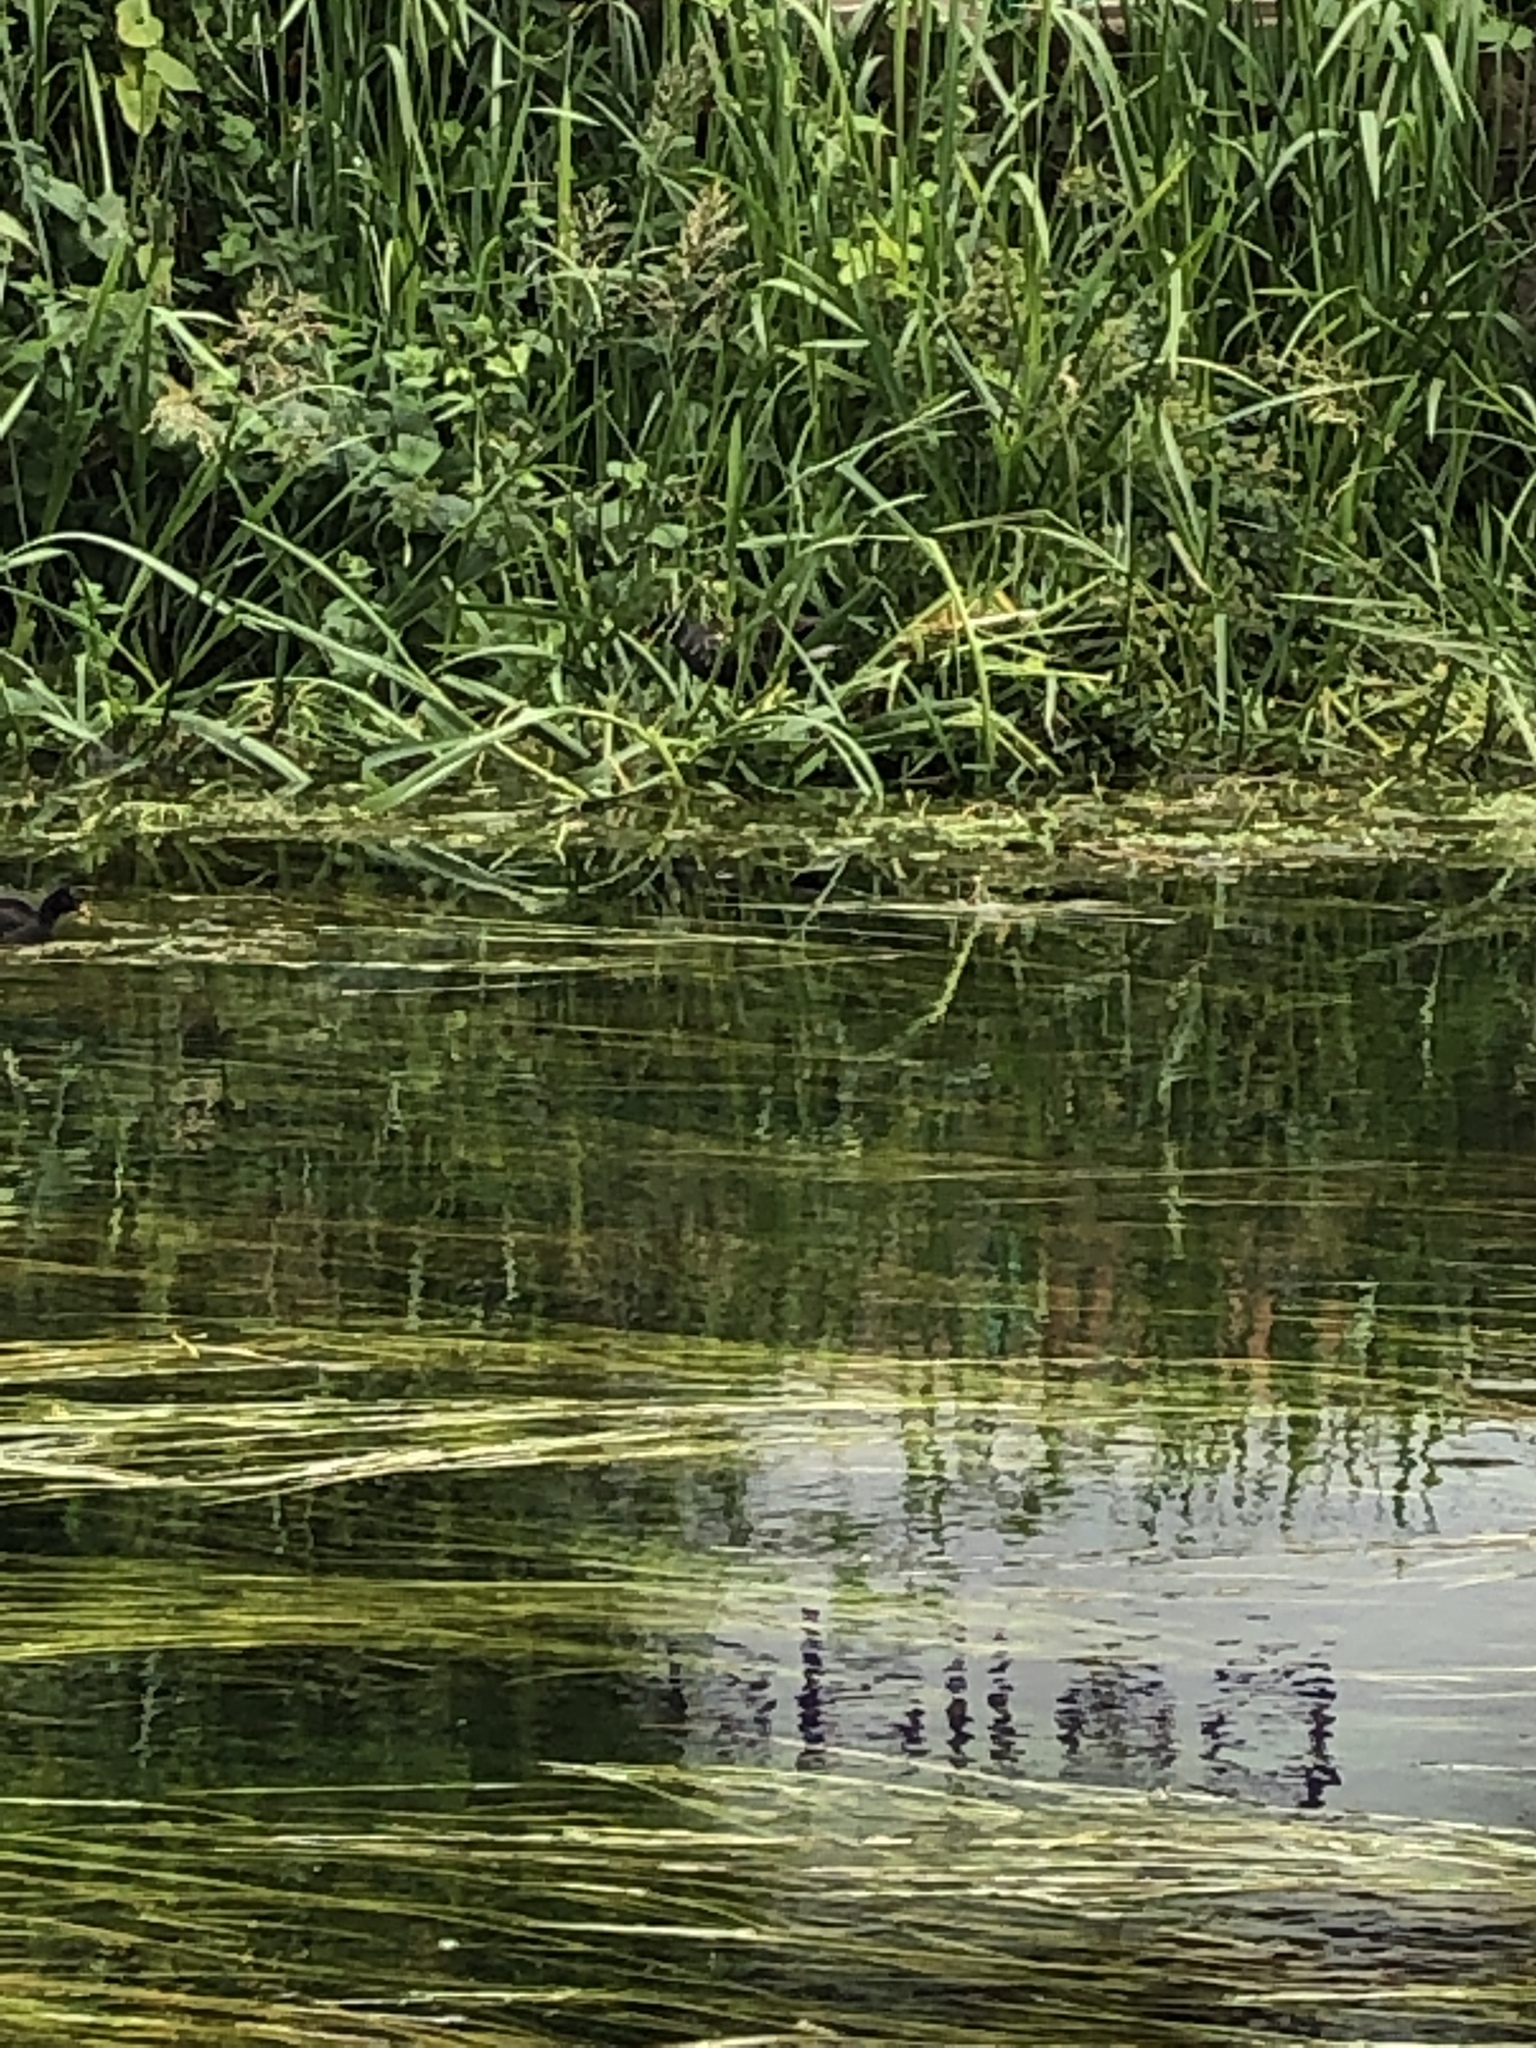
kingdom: Animalia
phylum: Chordata
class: Aves
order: Gruiformes
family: Rallidae
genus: Gallinula
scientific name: Gallinula chloropus
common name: Common moorhen
